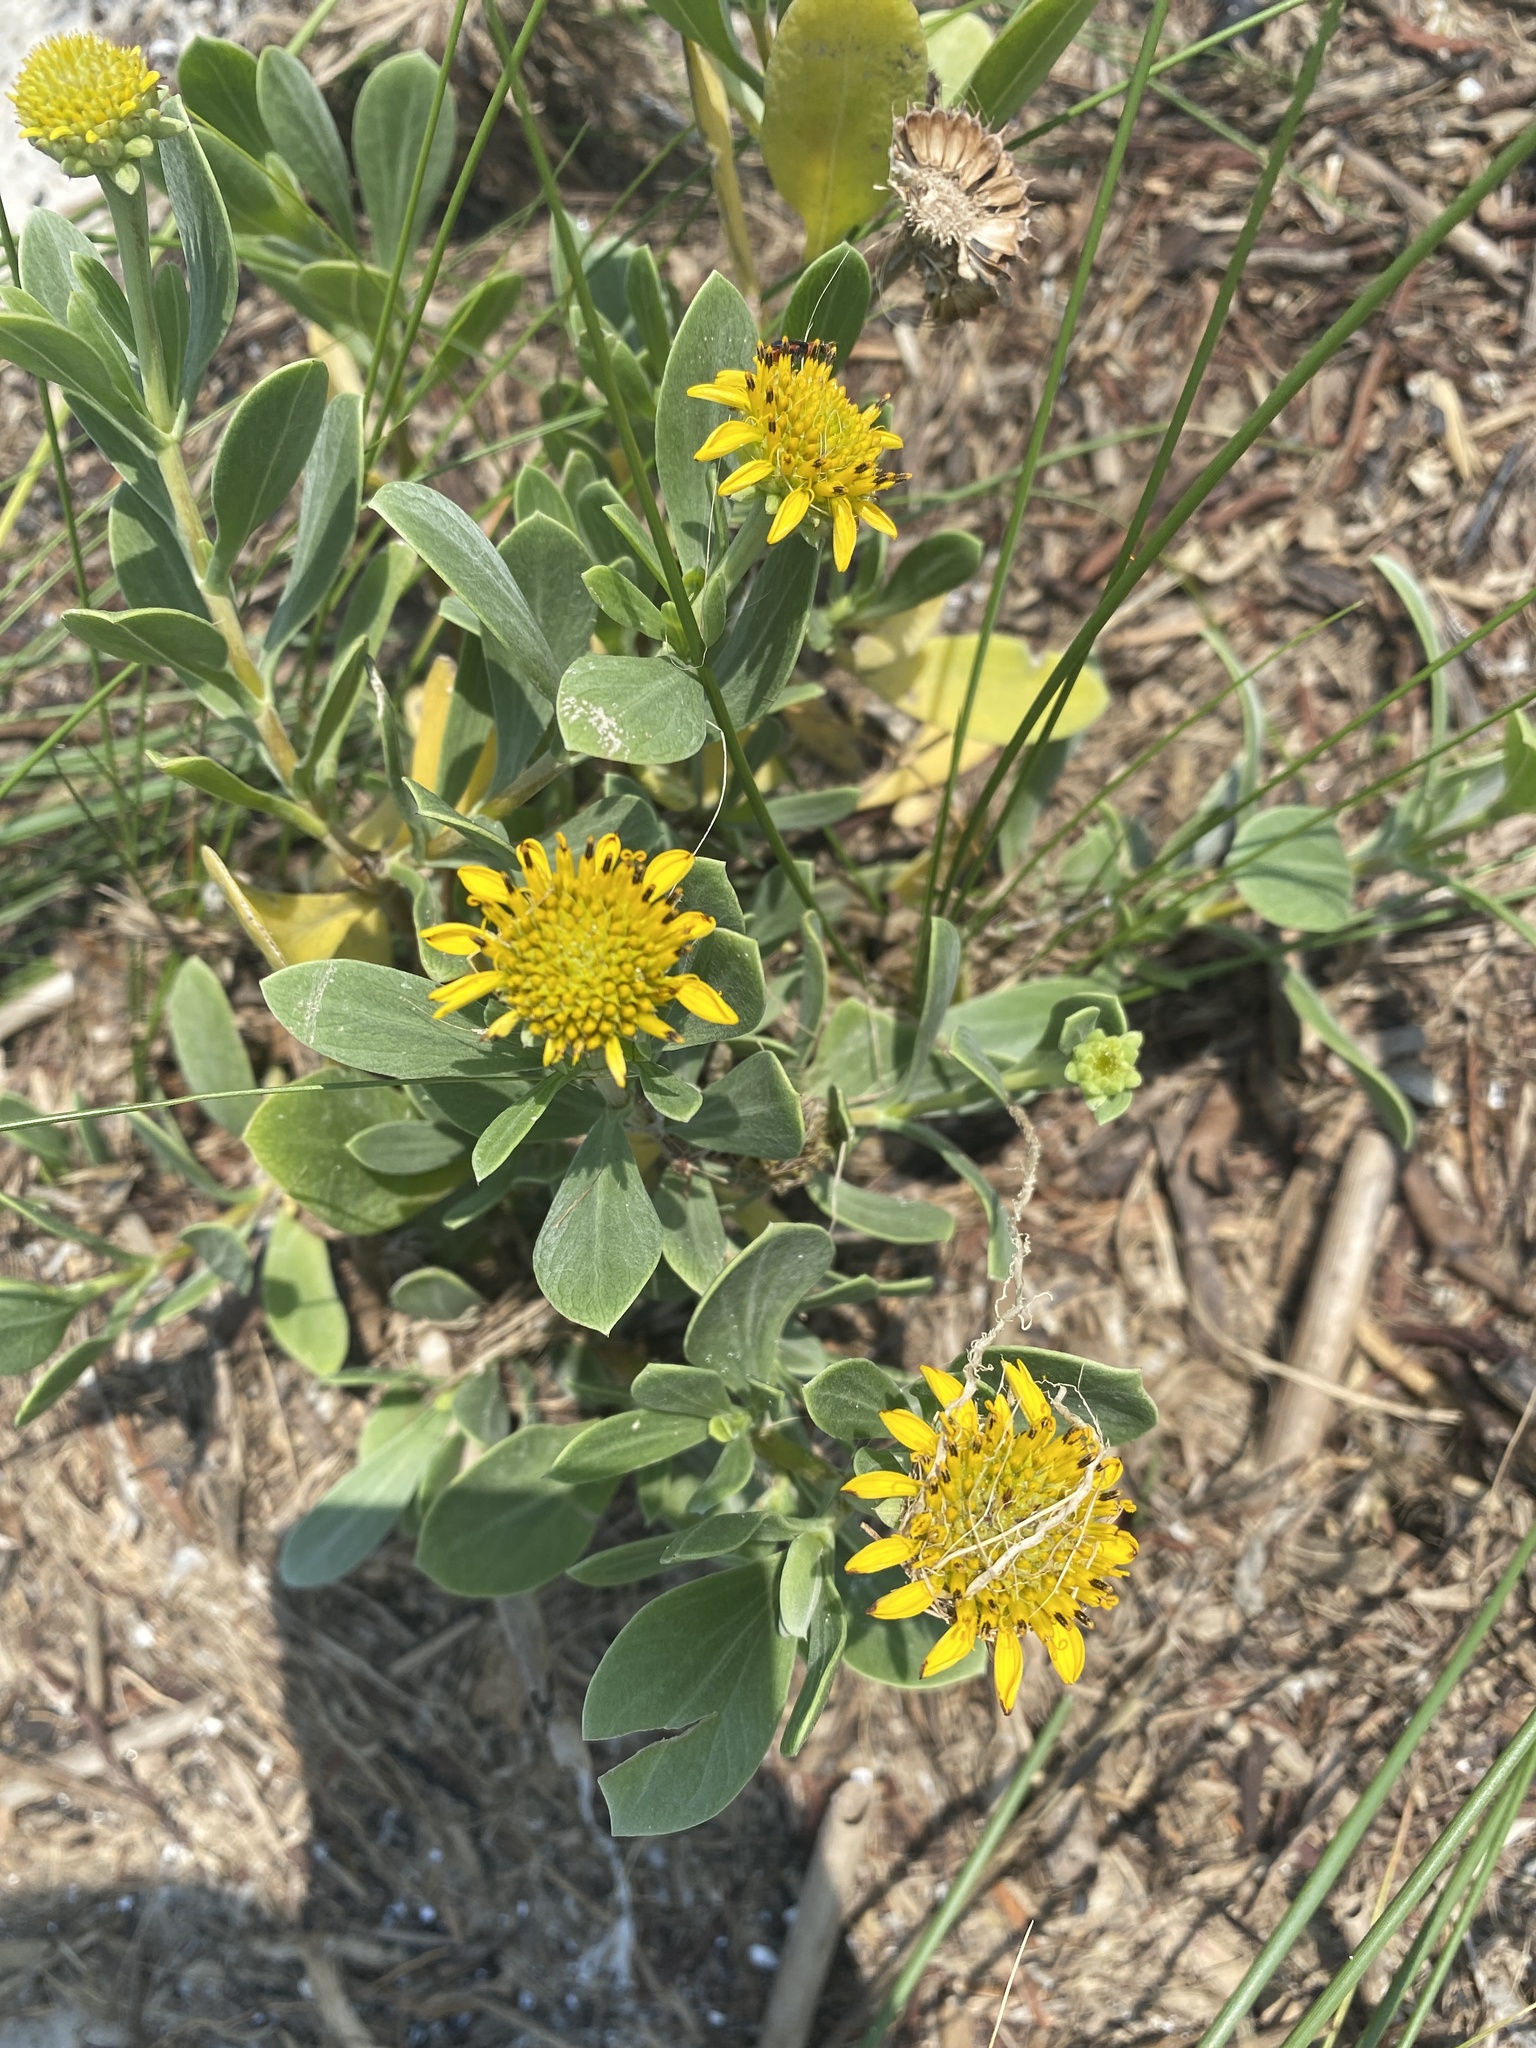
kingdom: Plantae
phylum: Tracheophyta
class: Magnoliopsida
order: Asterales
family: Asteraceae
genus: Borrichia
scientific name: Borrichia frutescens
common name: Sea oxeye
